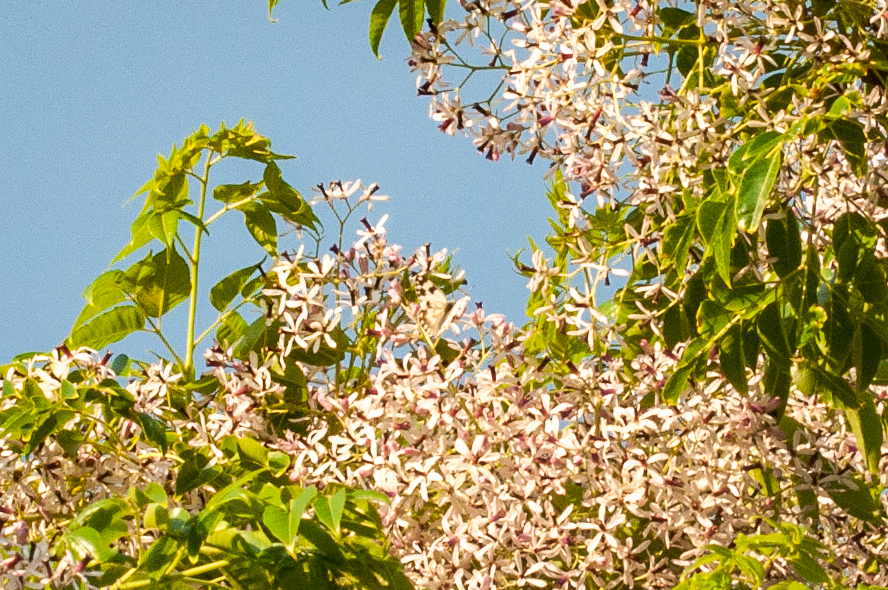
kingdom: Animalia
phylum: Arthropoda
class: Insecta
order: Lepidoptera
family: Pieridae
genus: Pontia
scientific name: Pontia helice
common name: Meadow white
